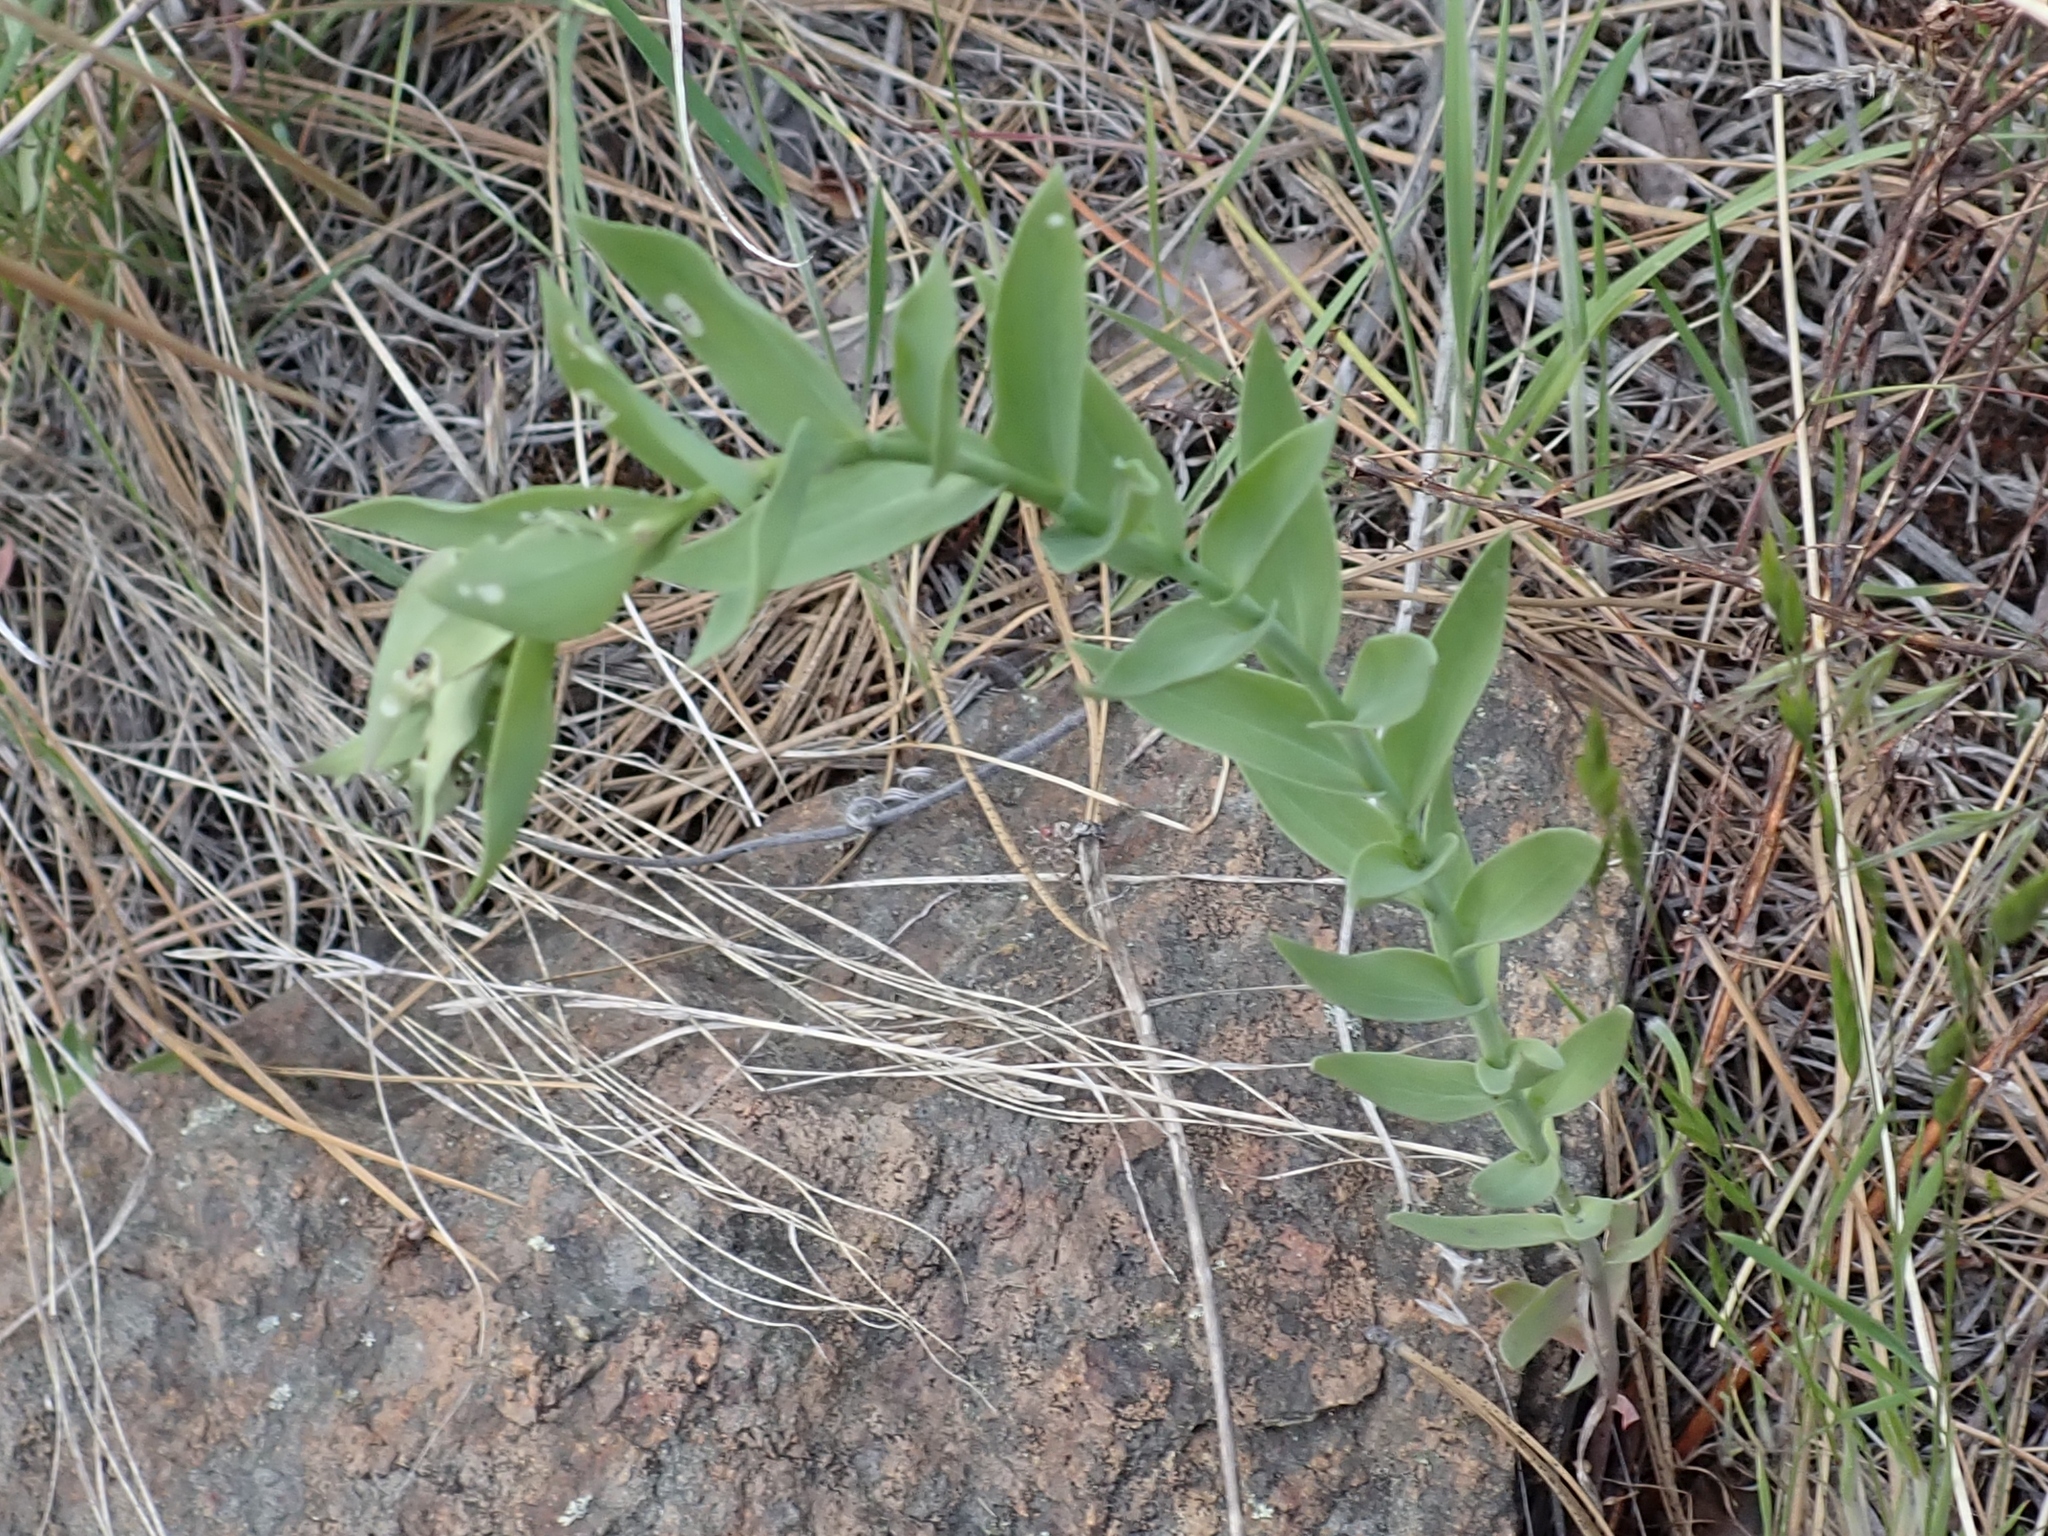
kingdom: Plantae
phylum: Tracheophyta
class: Magnoliopsida
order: Lamiales
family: Plantaginaceae
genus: Linaria
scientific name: Linaria dalmatica
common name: Dalmatian toadflax
